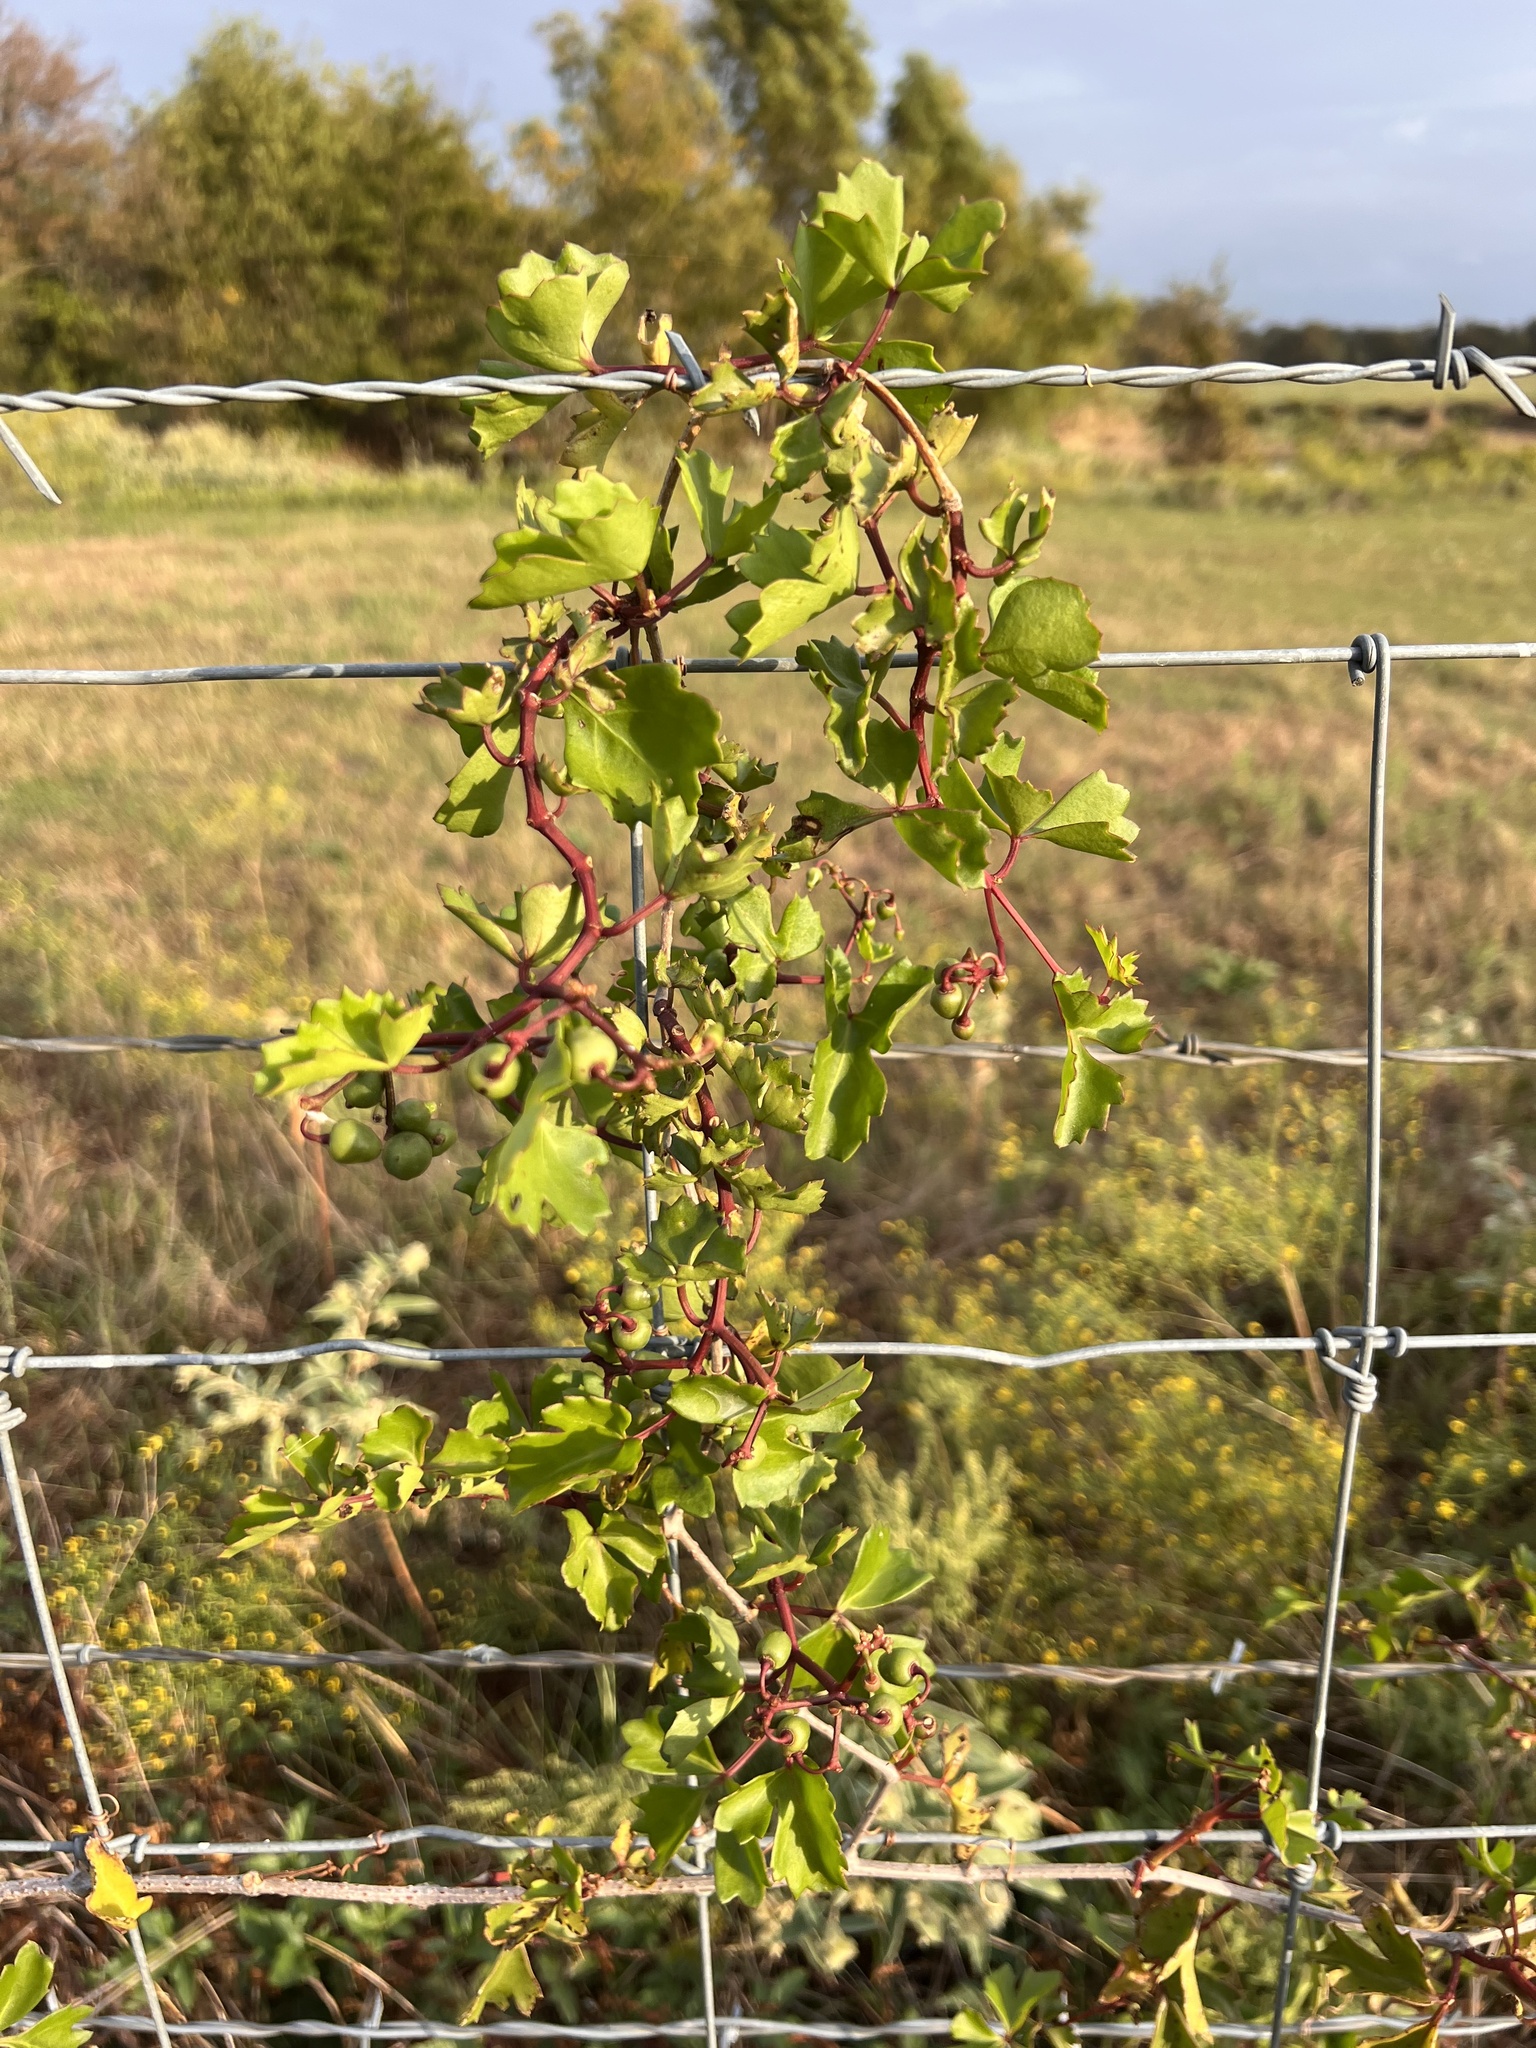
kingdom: Plantae
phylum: Tracheophyta
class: Magnoliopsida
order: Vitales
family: Vitaceae
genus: Cissus
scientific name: Cissus trifoliata
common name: Vine-sorrel
